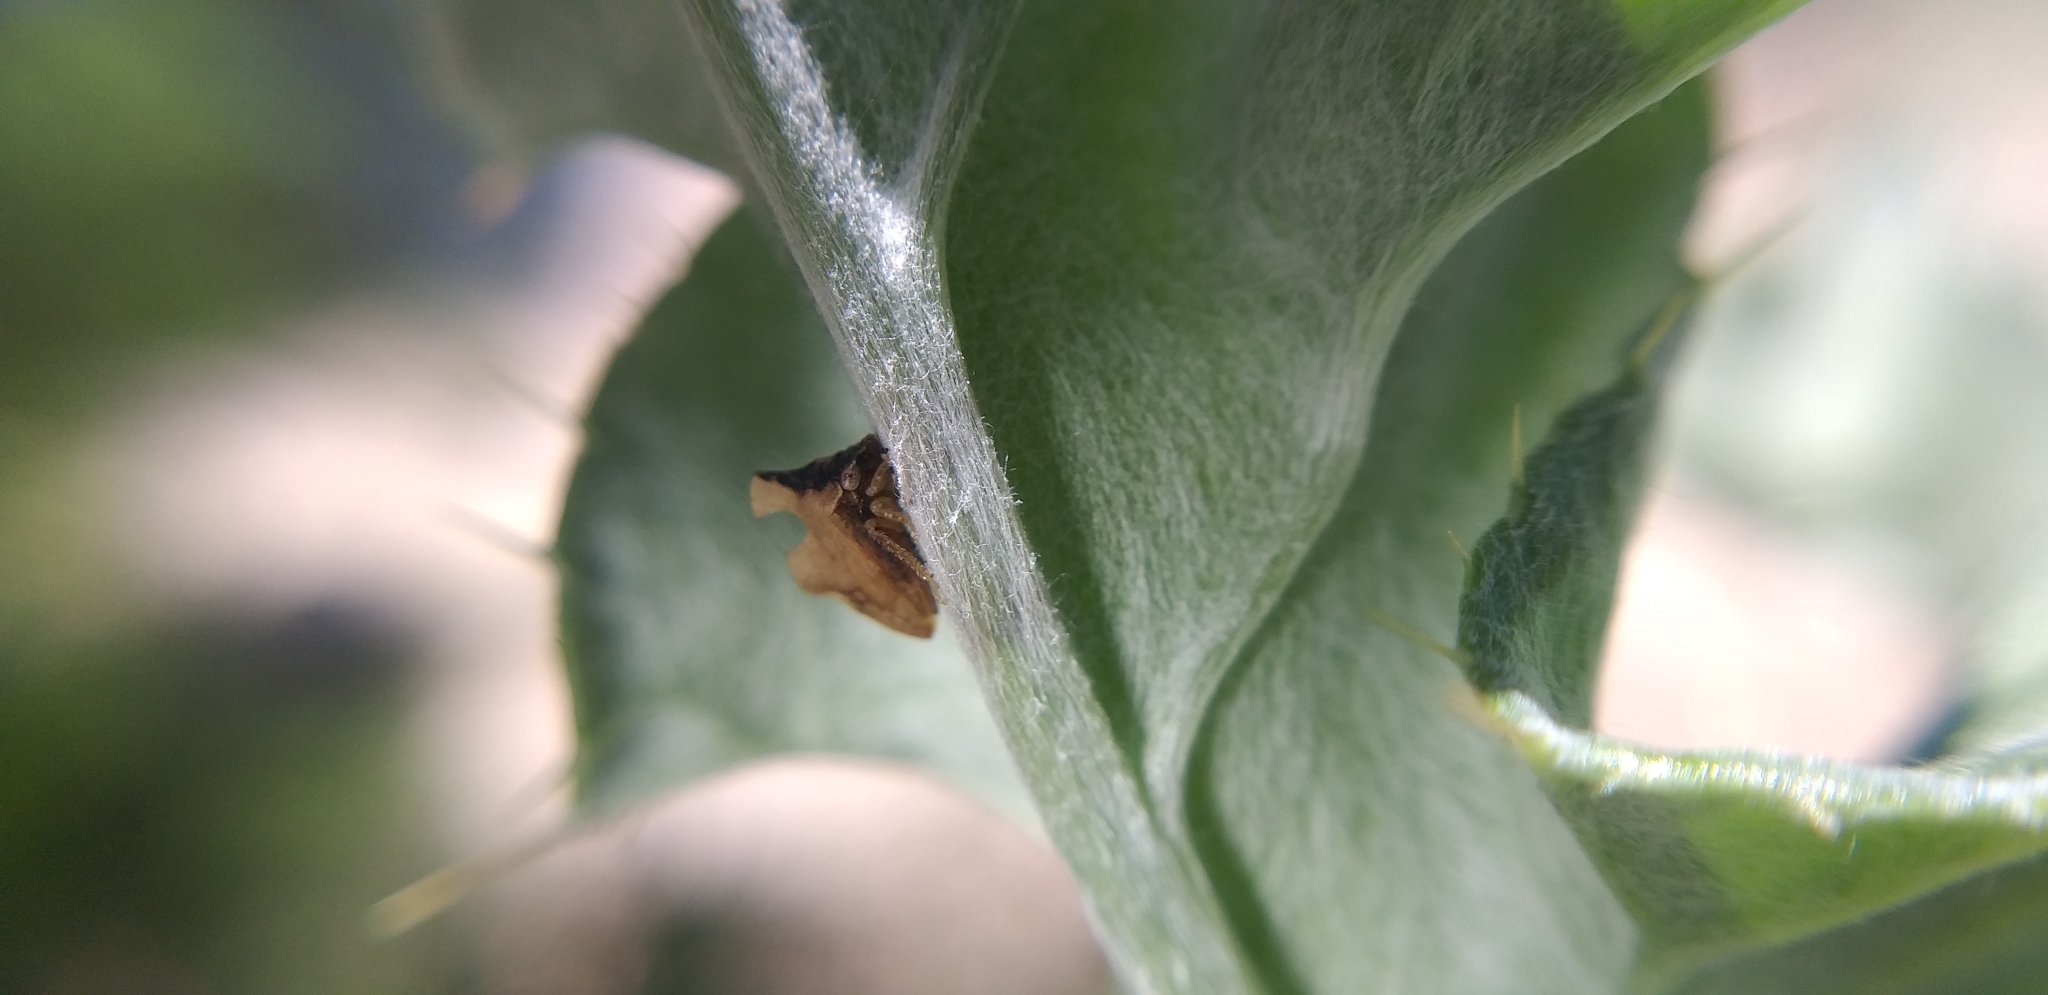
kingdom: Animalia
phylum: Arthropoda
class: Insecta
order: Hemiptera
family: Membracidae
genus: Entylia
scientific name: Entylia carinata
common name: Keeled treehopper
